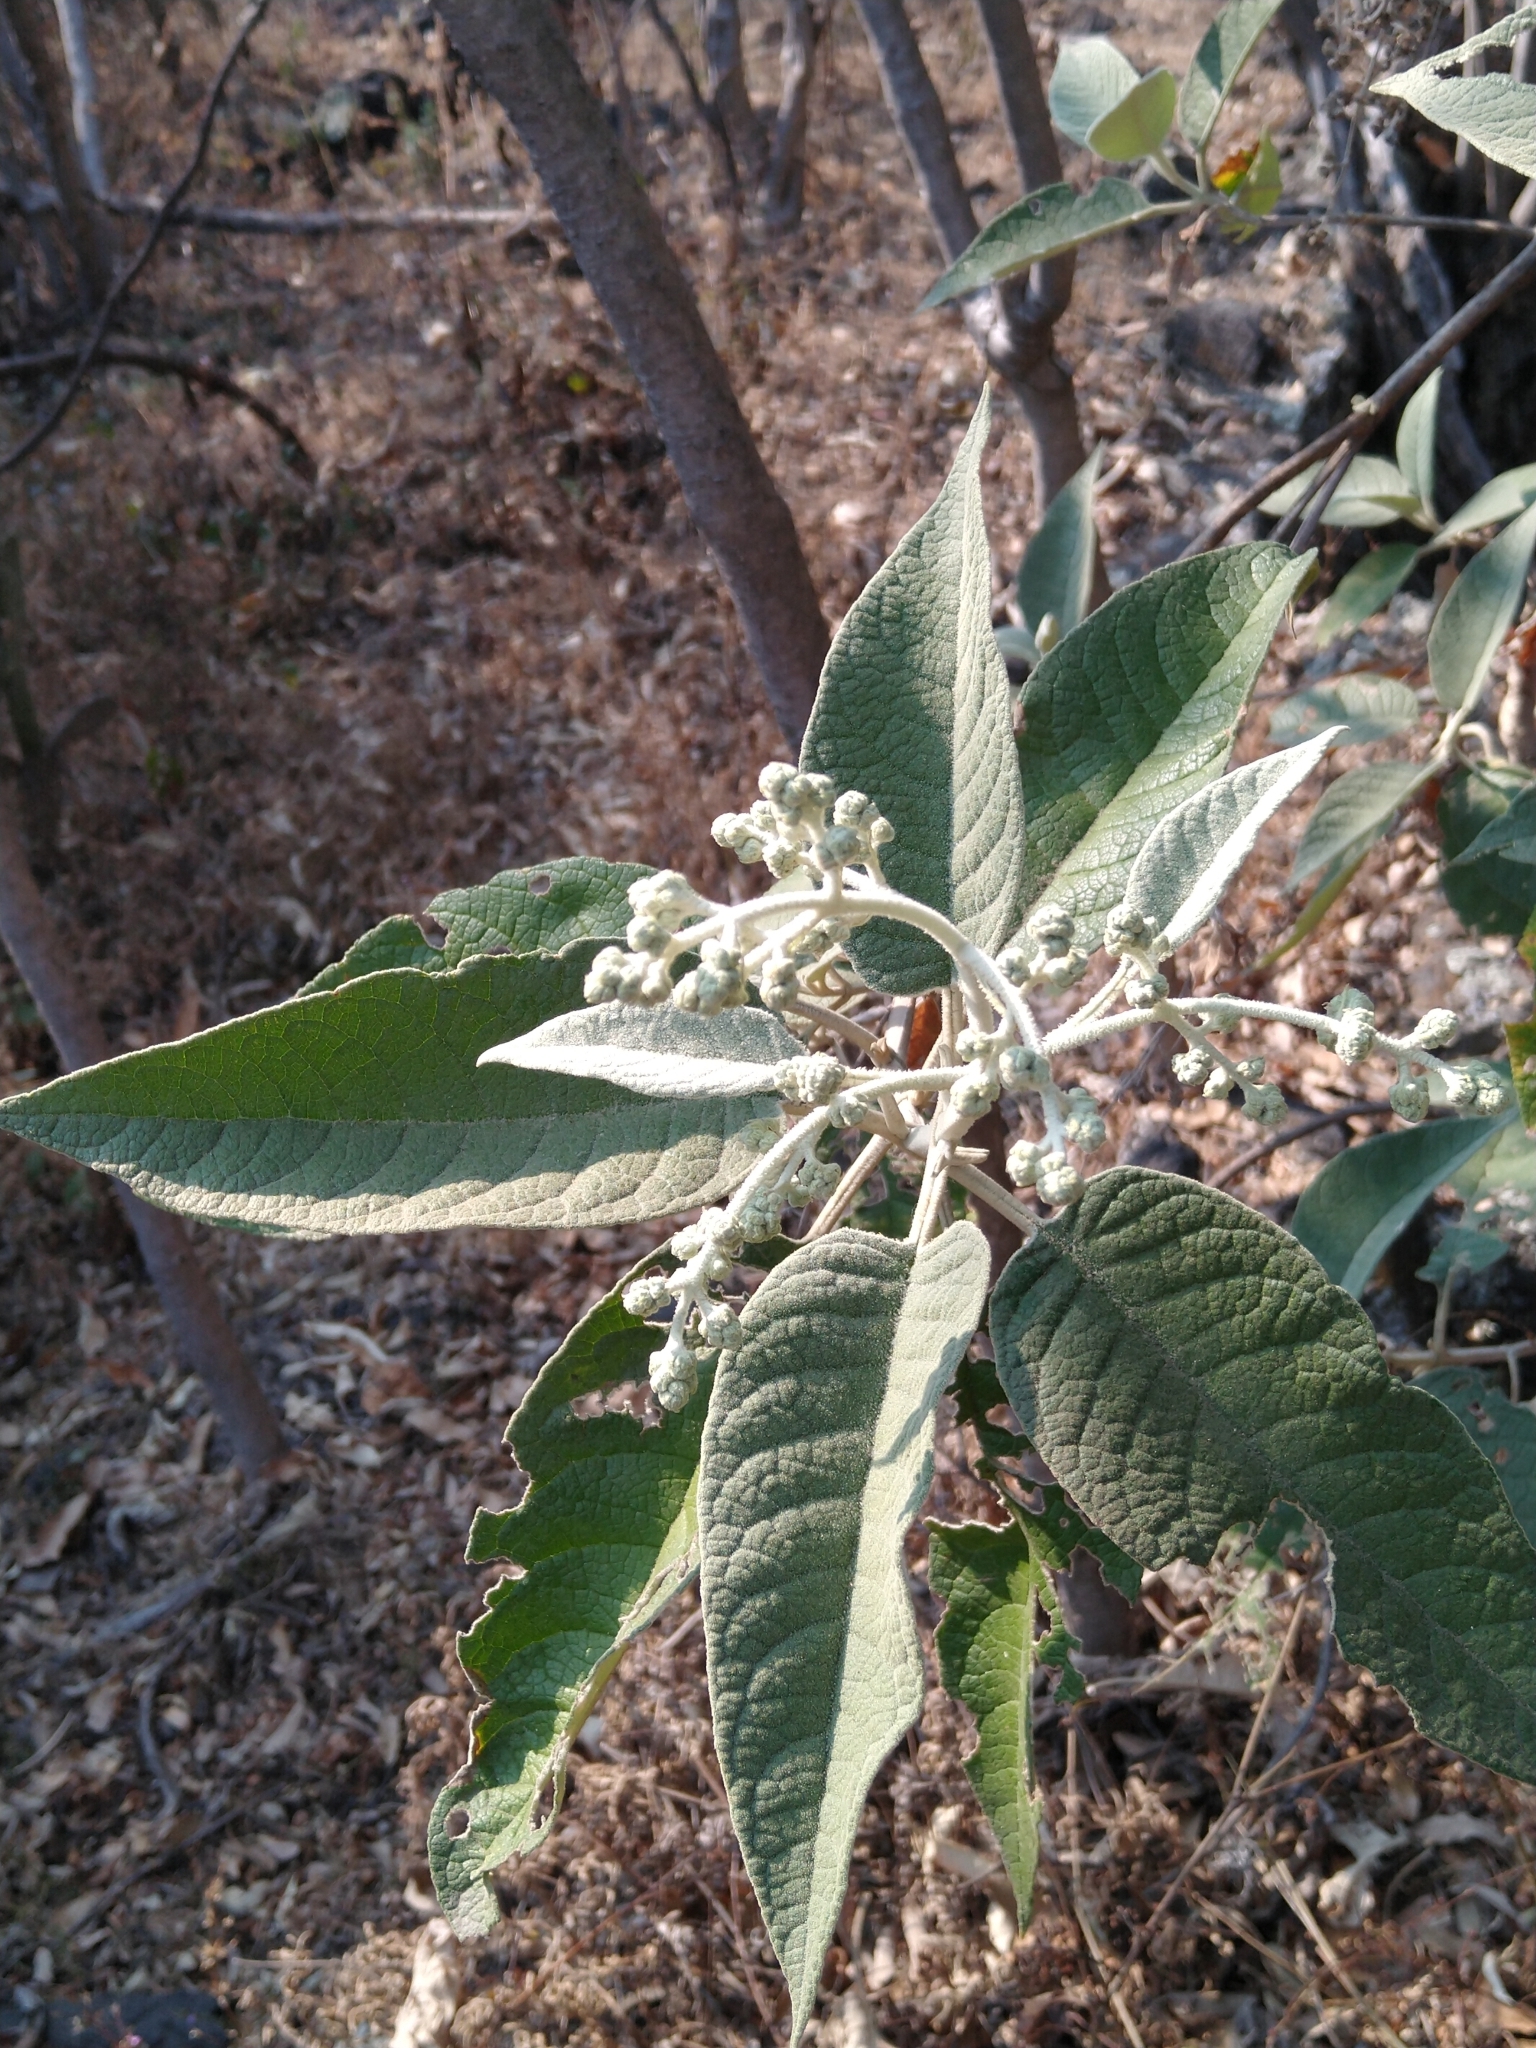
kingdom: Plantae
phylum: Tracheophyta
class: Magnoliopsida
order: Lamiales
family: Scrophulariaceae
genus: Buddleja
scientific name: Buddleja cordata
